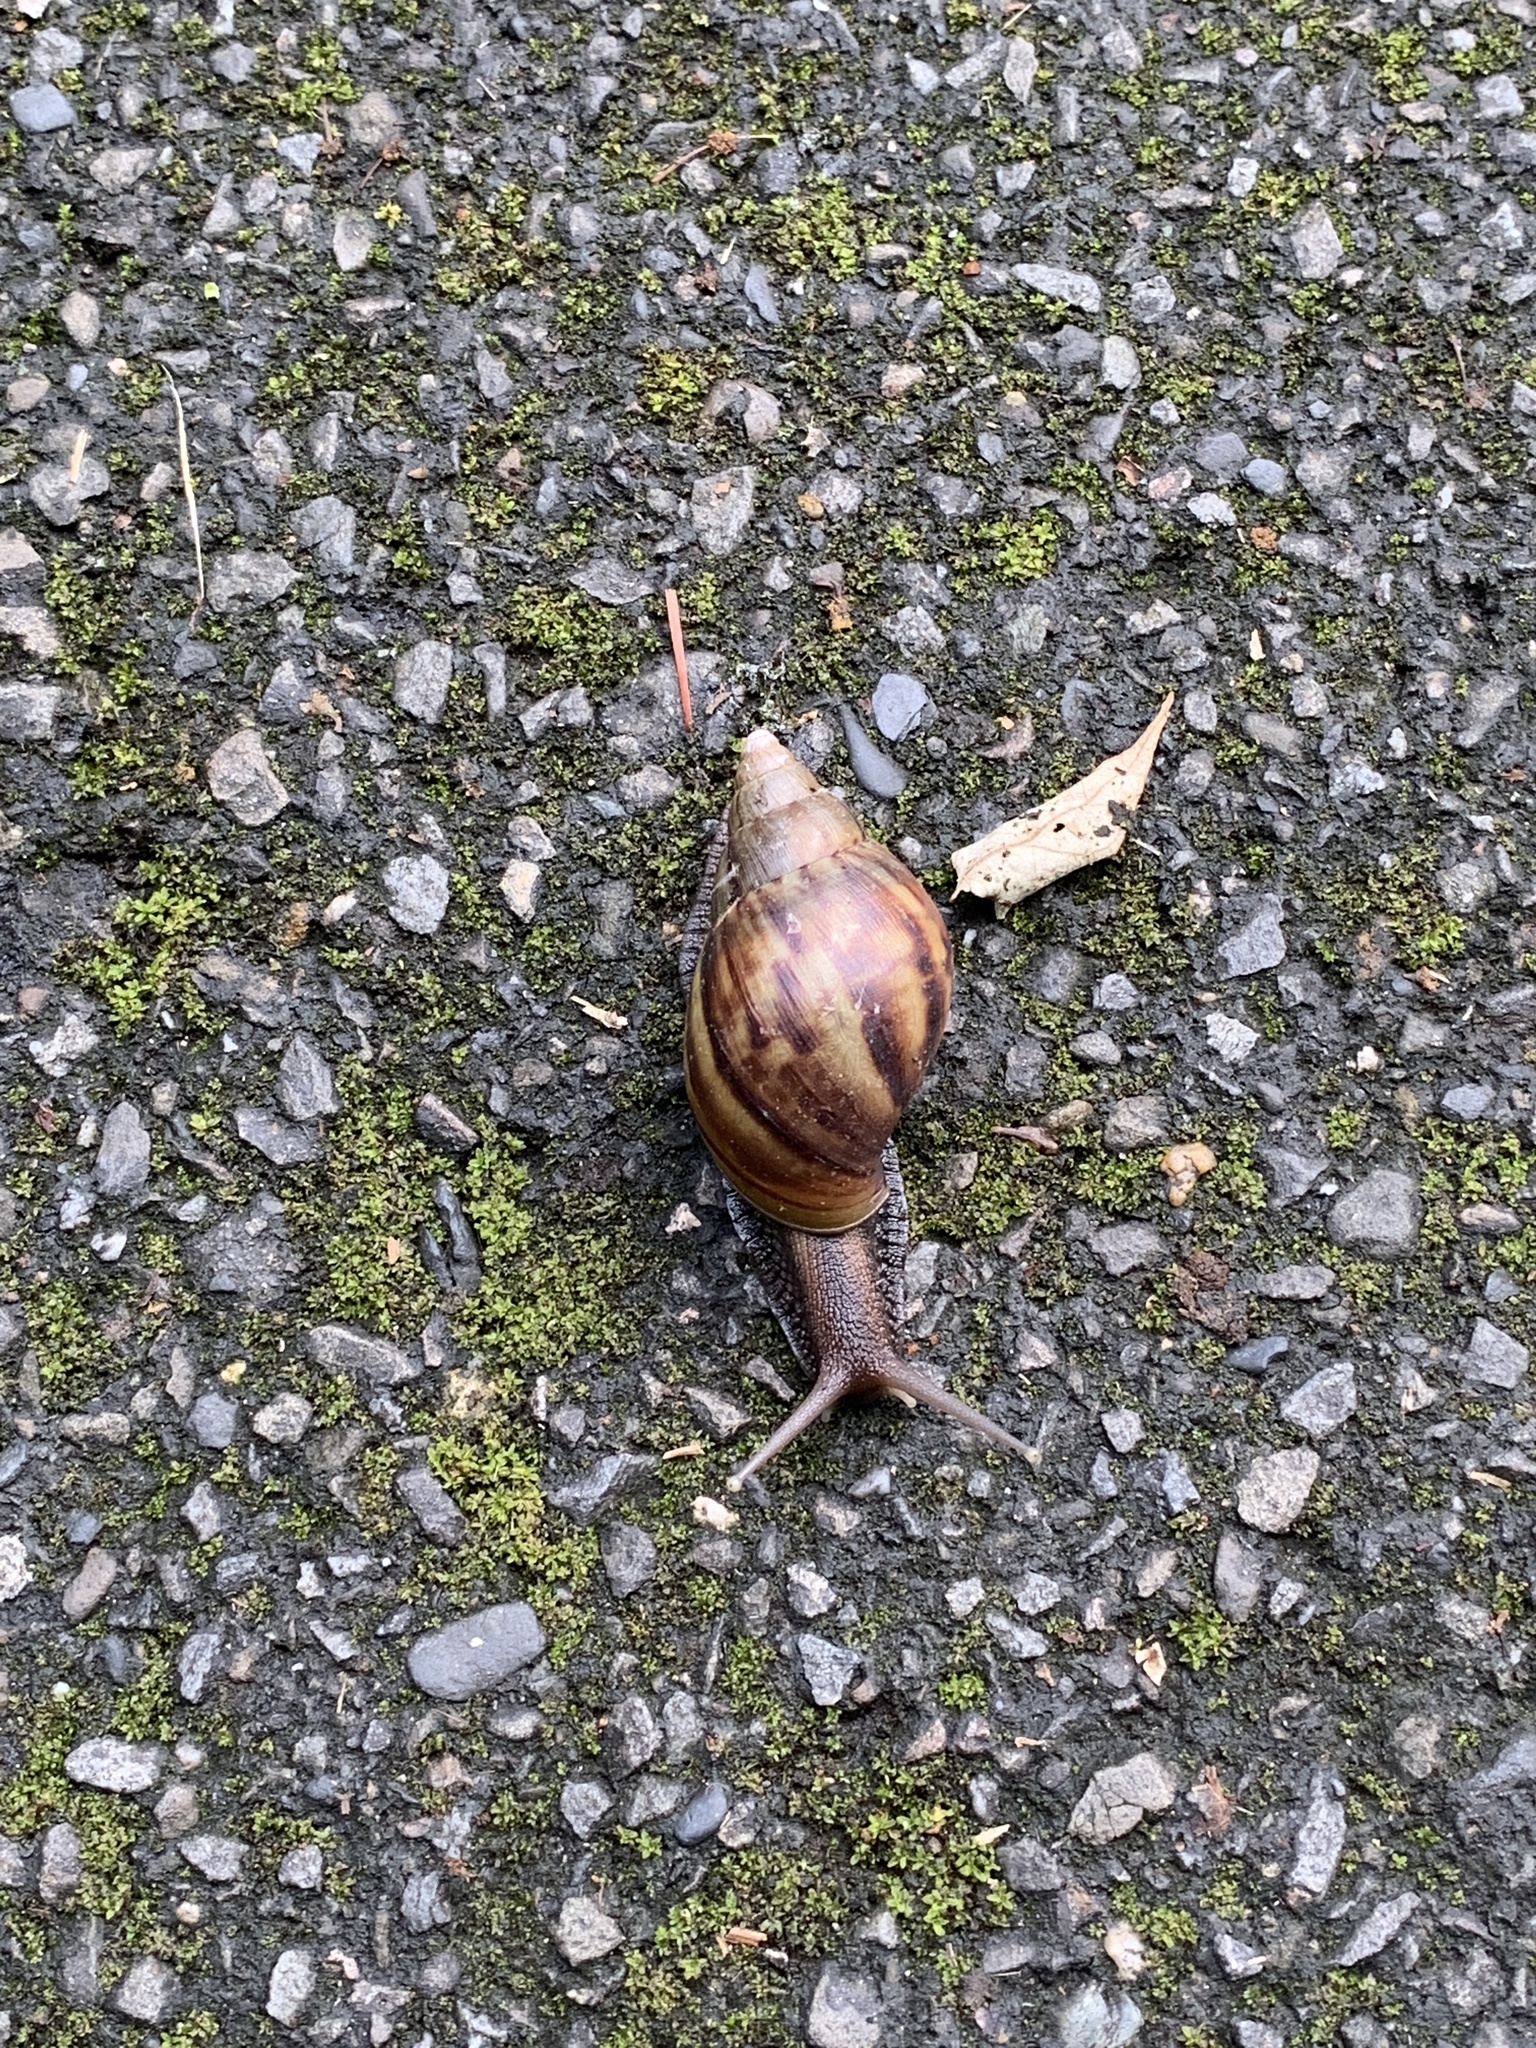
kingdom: Animalia
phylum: Mollusca
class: Gastropoda
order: Stylommatophora
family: Achatinidae
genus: Lissachatina
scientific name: Lissachatina fulica
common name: Giant african snail
